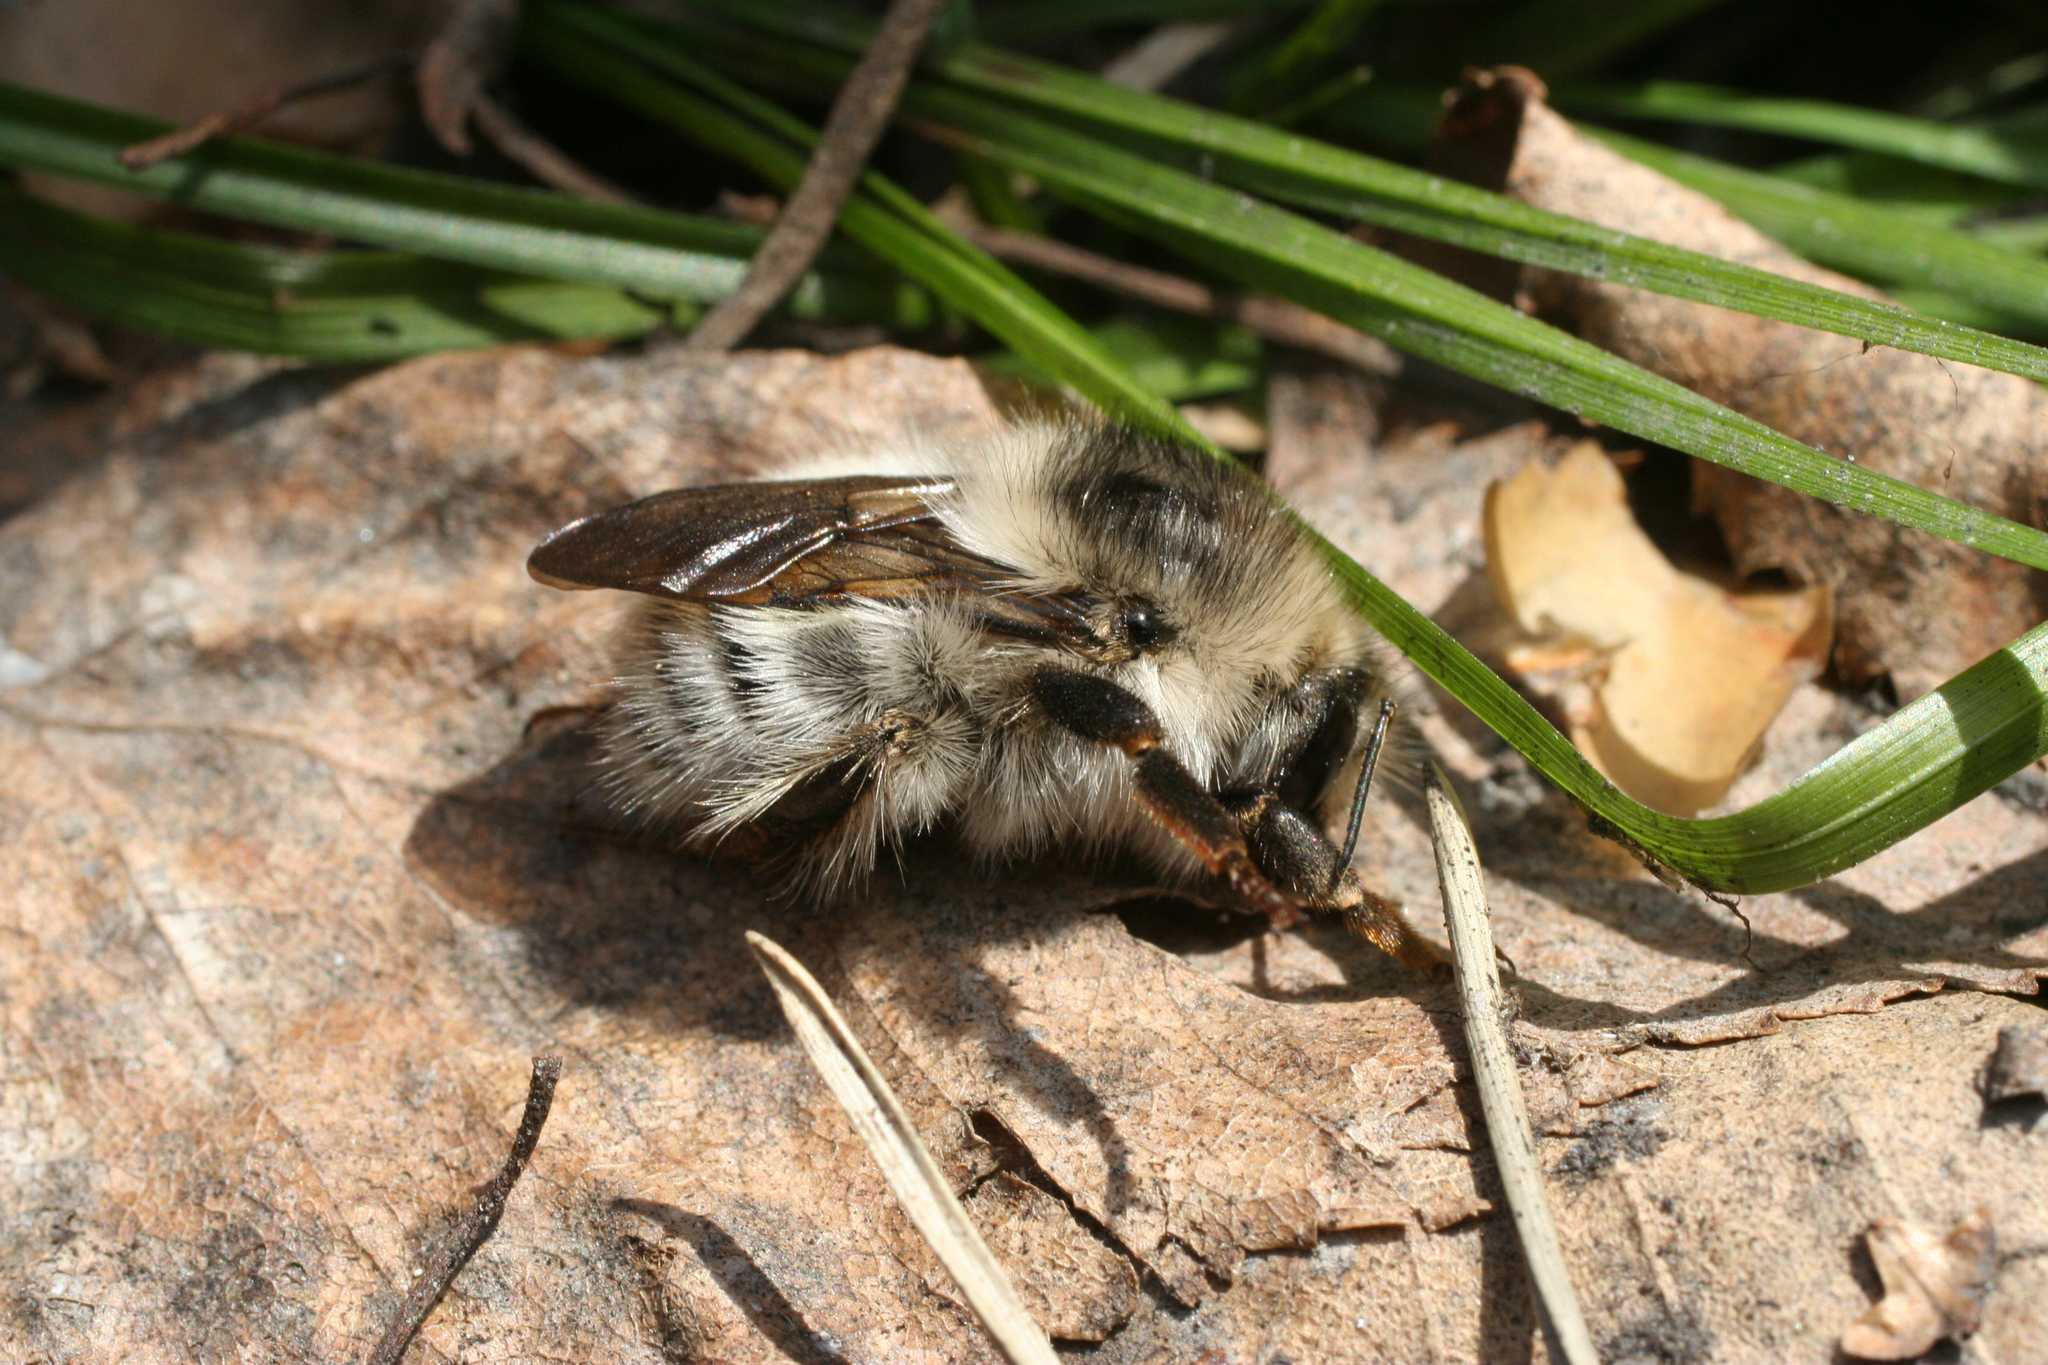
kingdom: Animalia
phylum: Arthropoda
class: Insecta
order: Hymenoptera
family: Apidae
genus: Bombus
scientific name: Bombus veteranus
